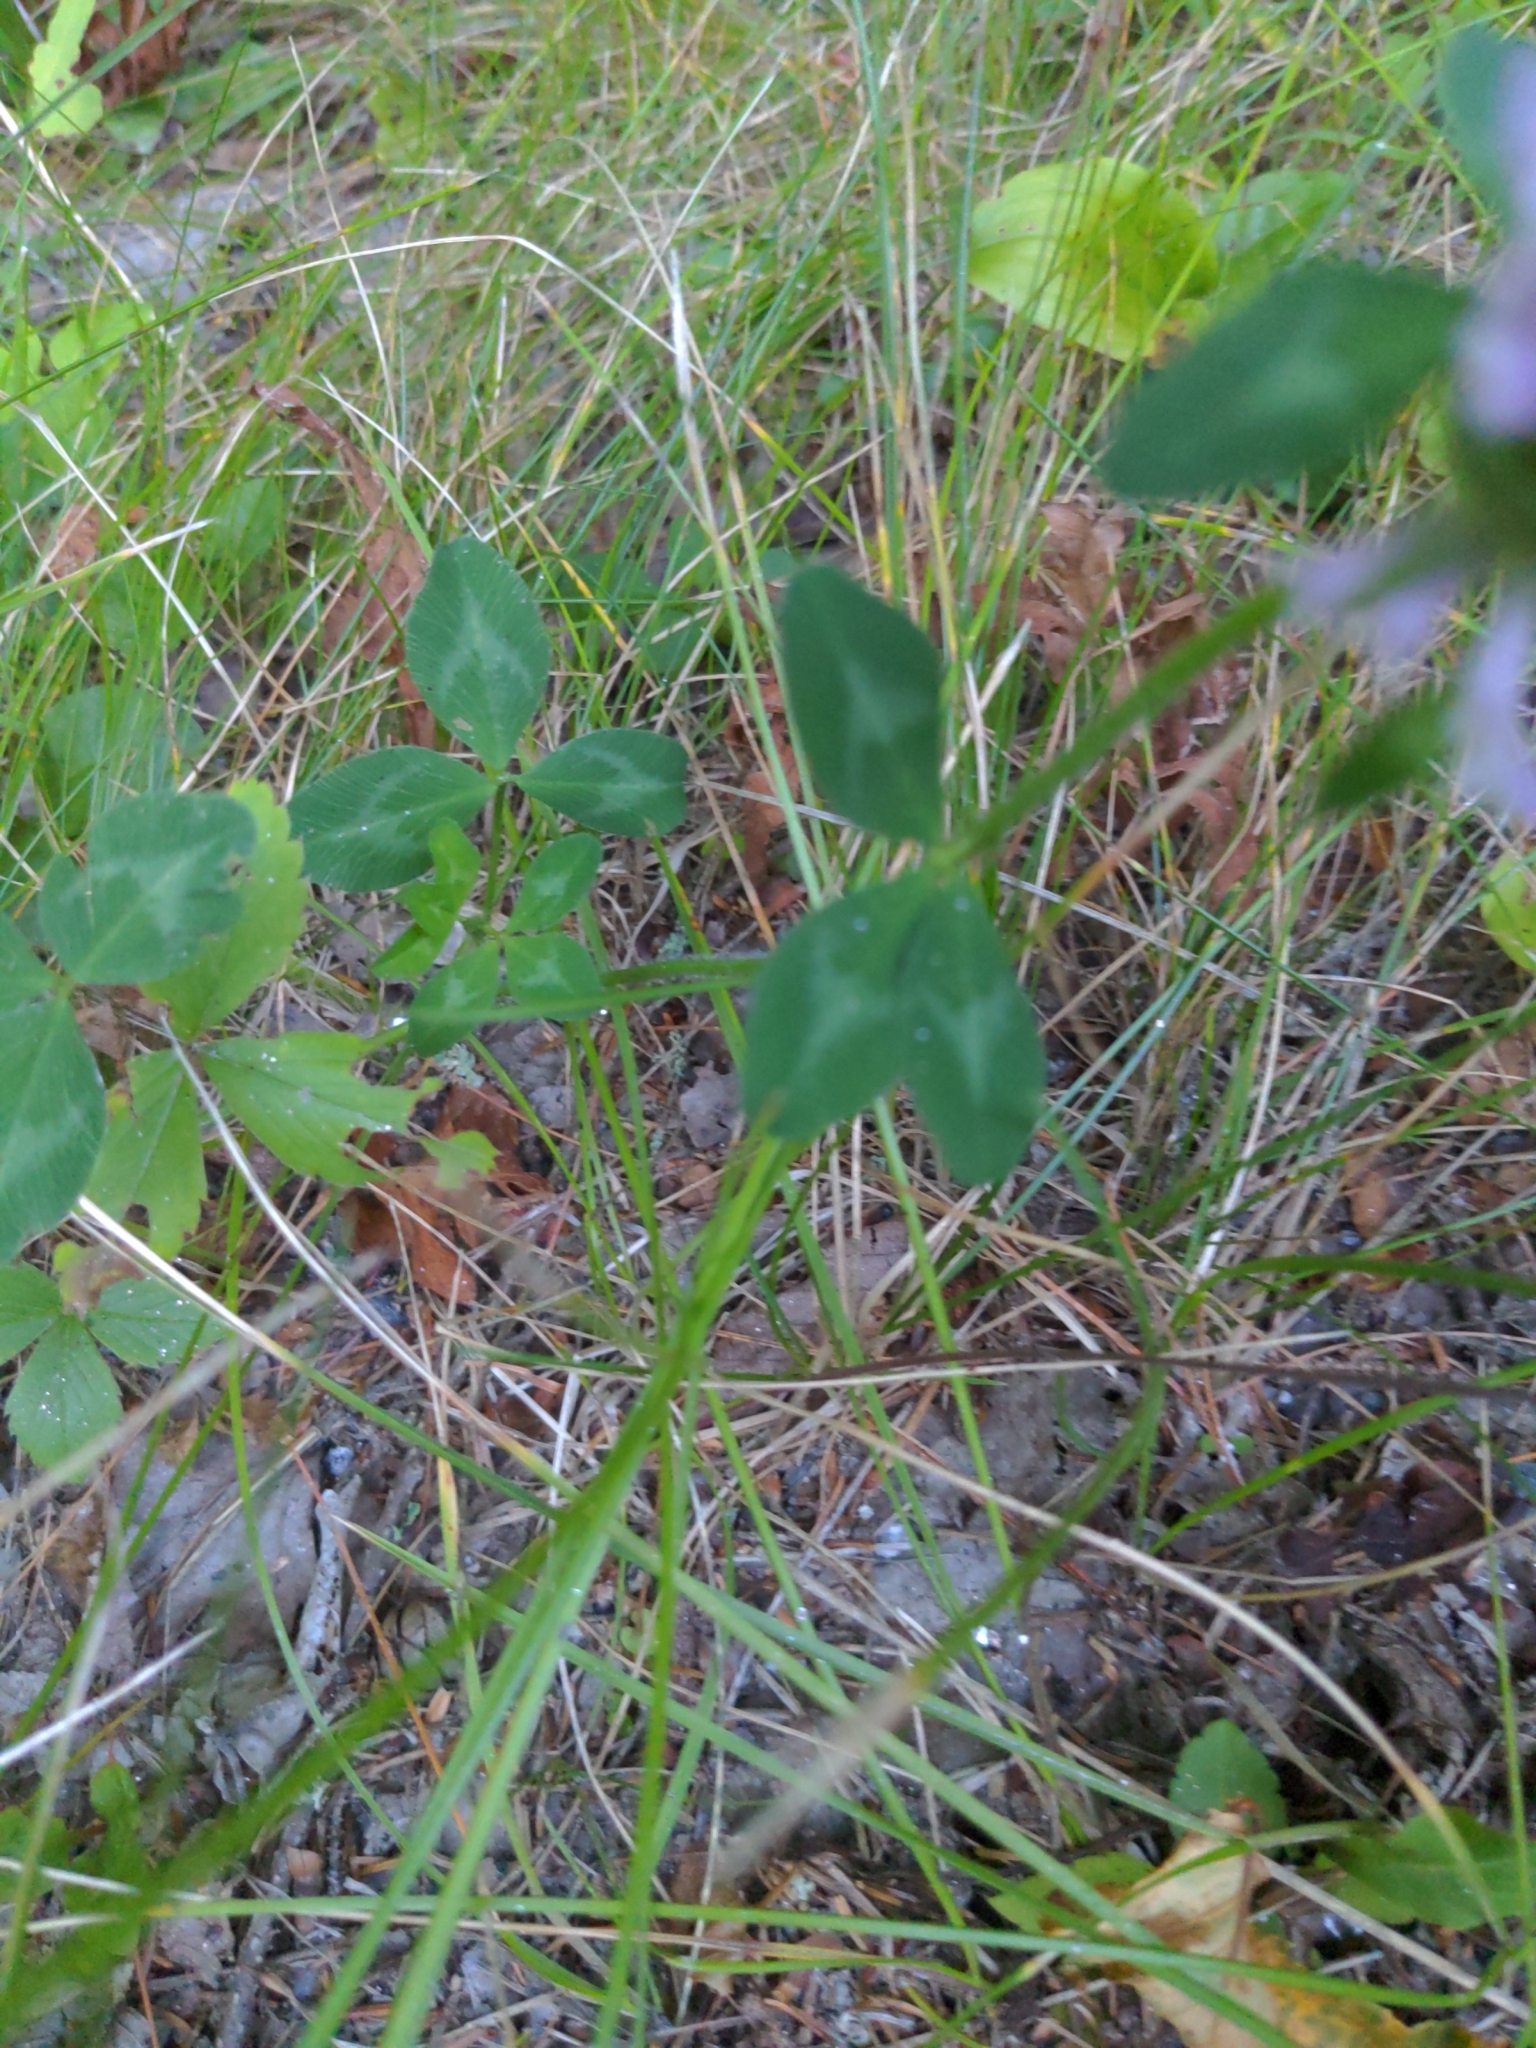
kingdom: Plantae
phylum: Tracheophyta
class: Magnoliopsida
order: Fabales
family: Fabaceae
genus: Trifolium
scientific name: Trifolium pratense
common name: Red clover
